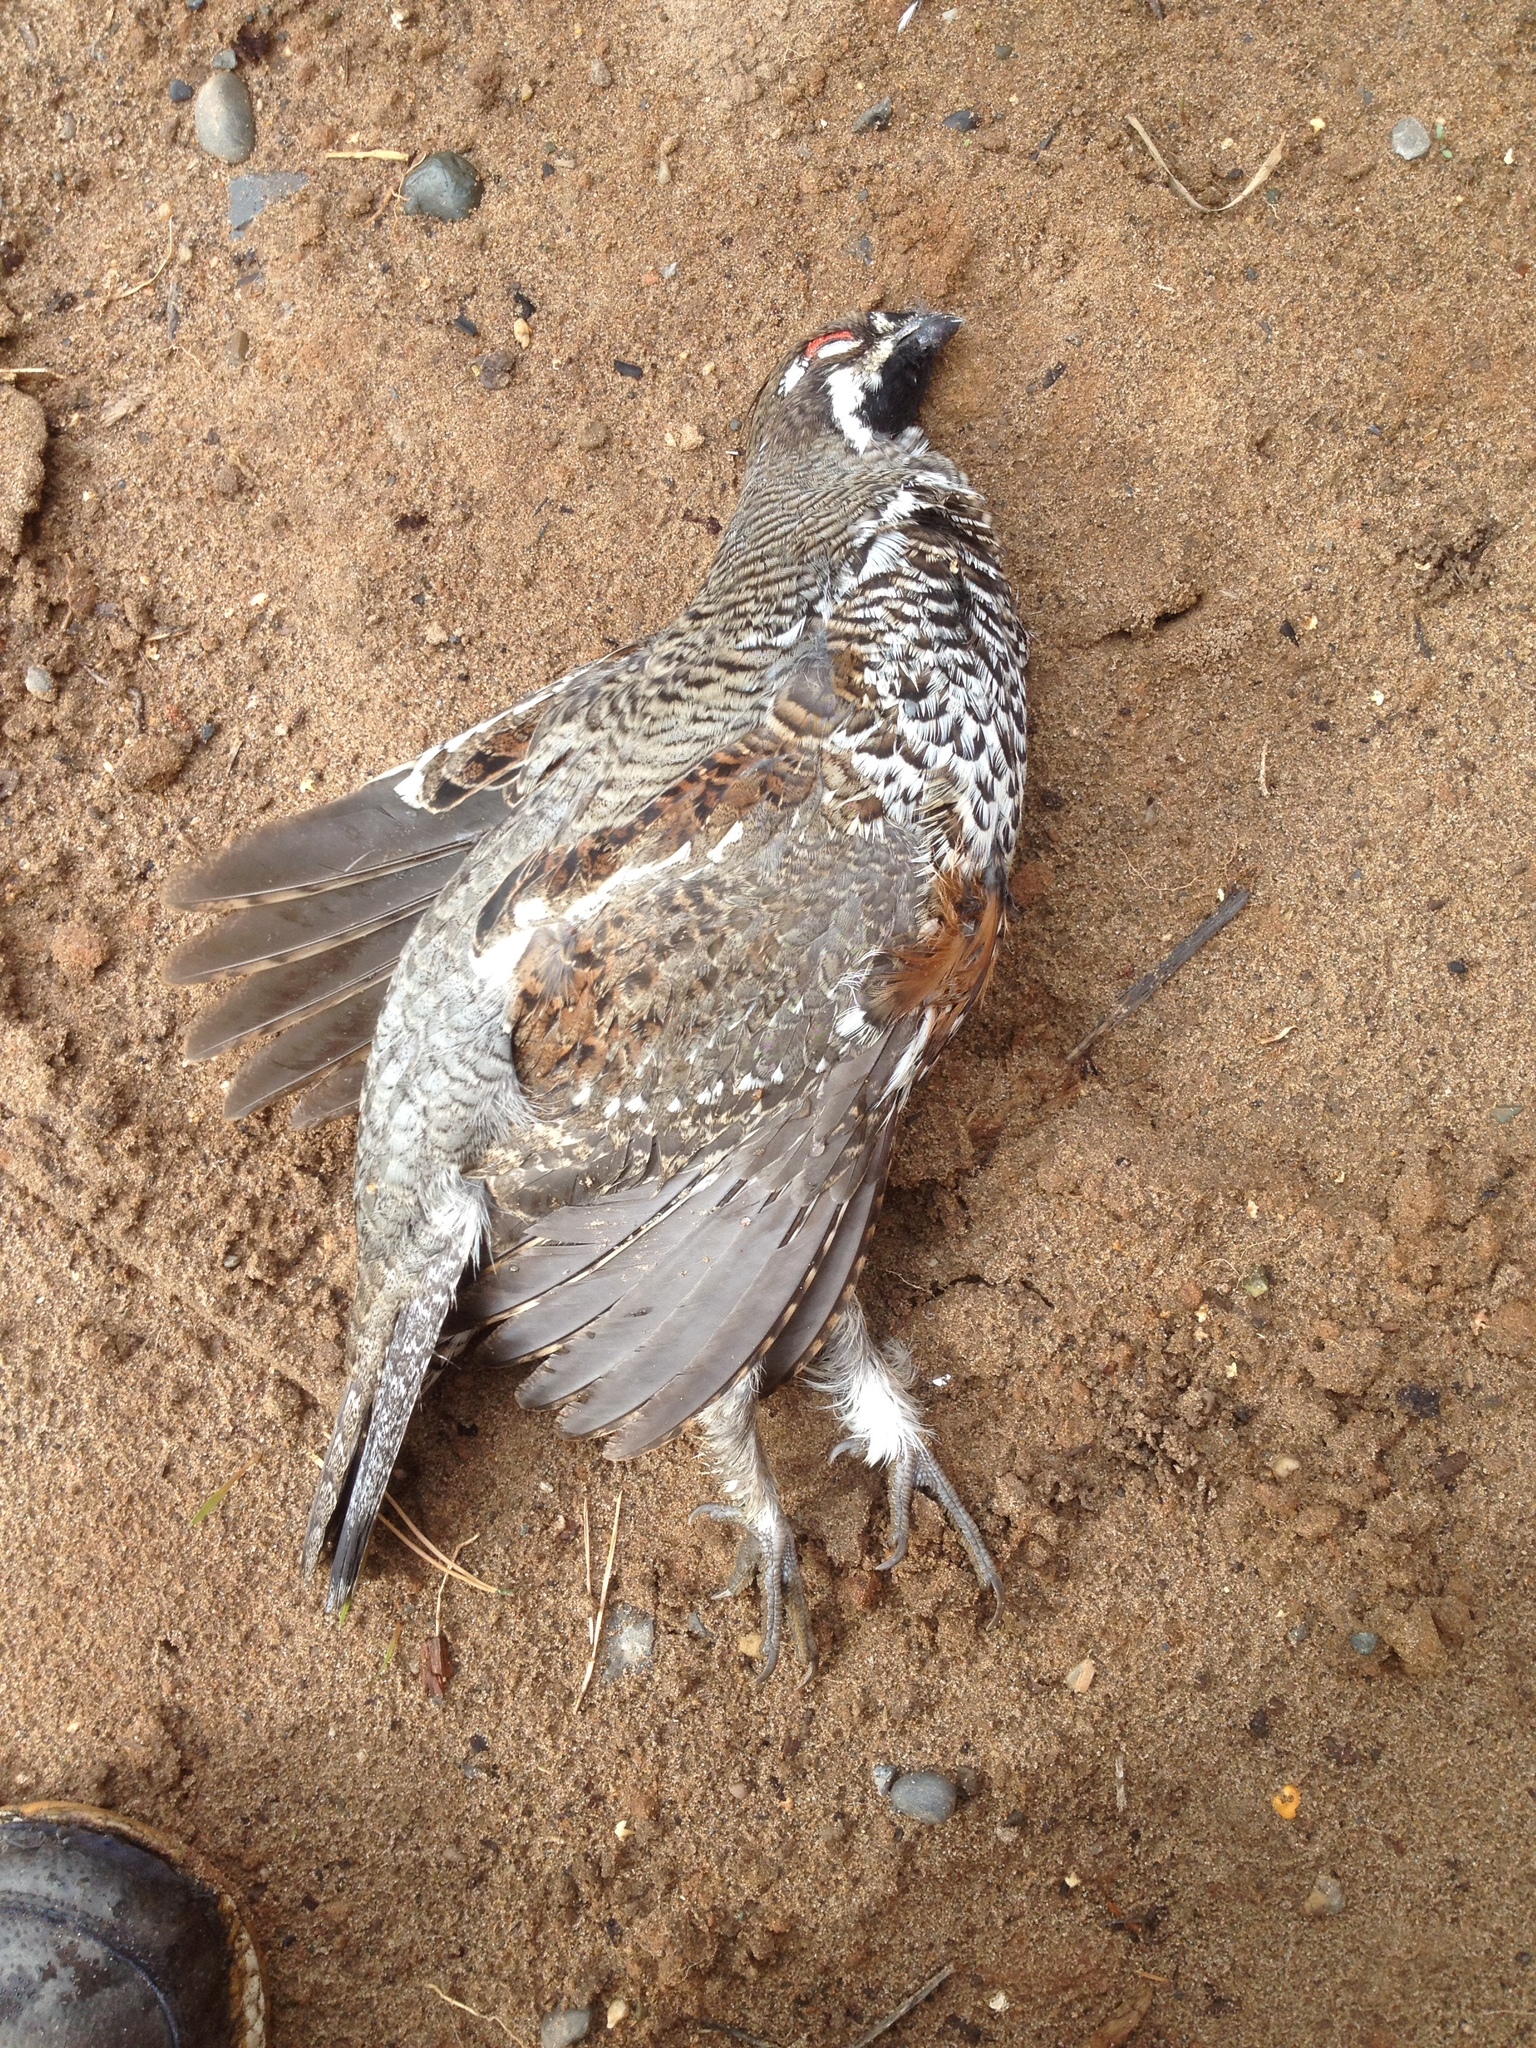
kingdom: Animalia
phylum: Chordata
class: Aves
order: Galliformes
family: Phasianidae
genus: Tetrastes
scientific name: Tetrastes bonasia
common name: Hazel grouse
